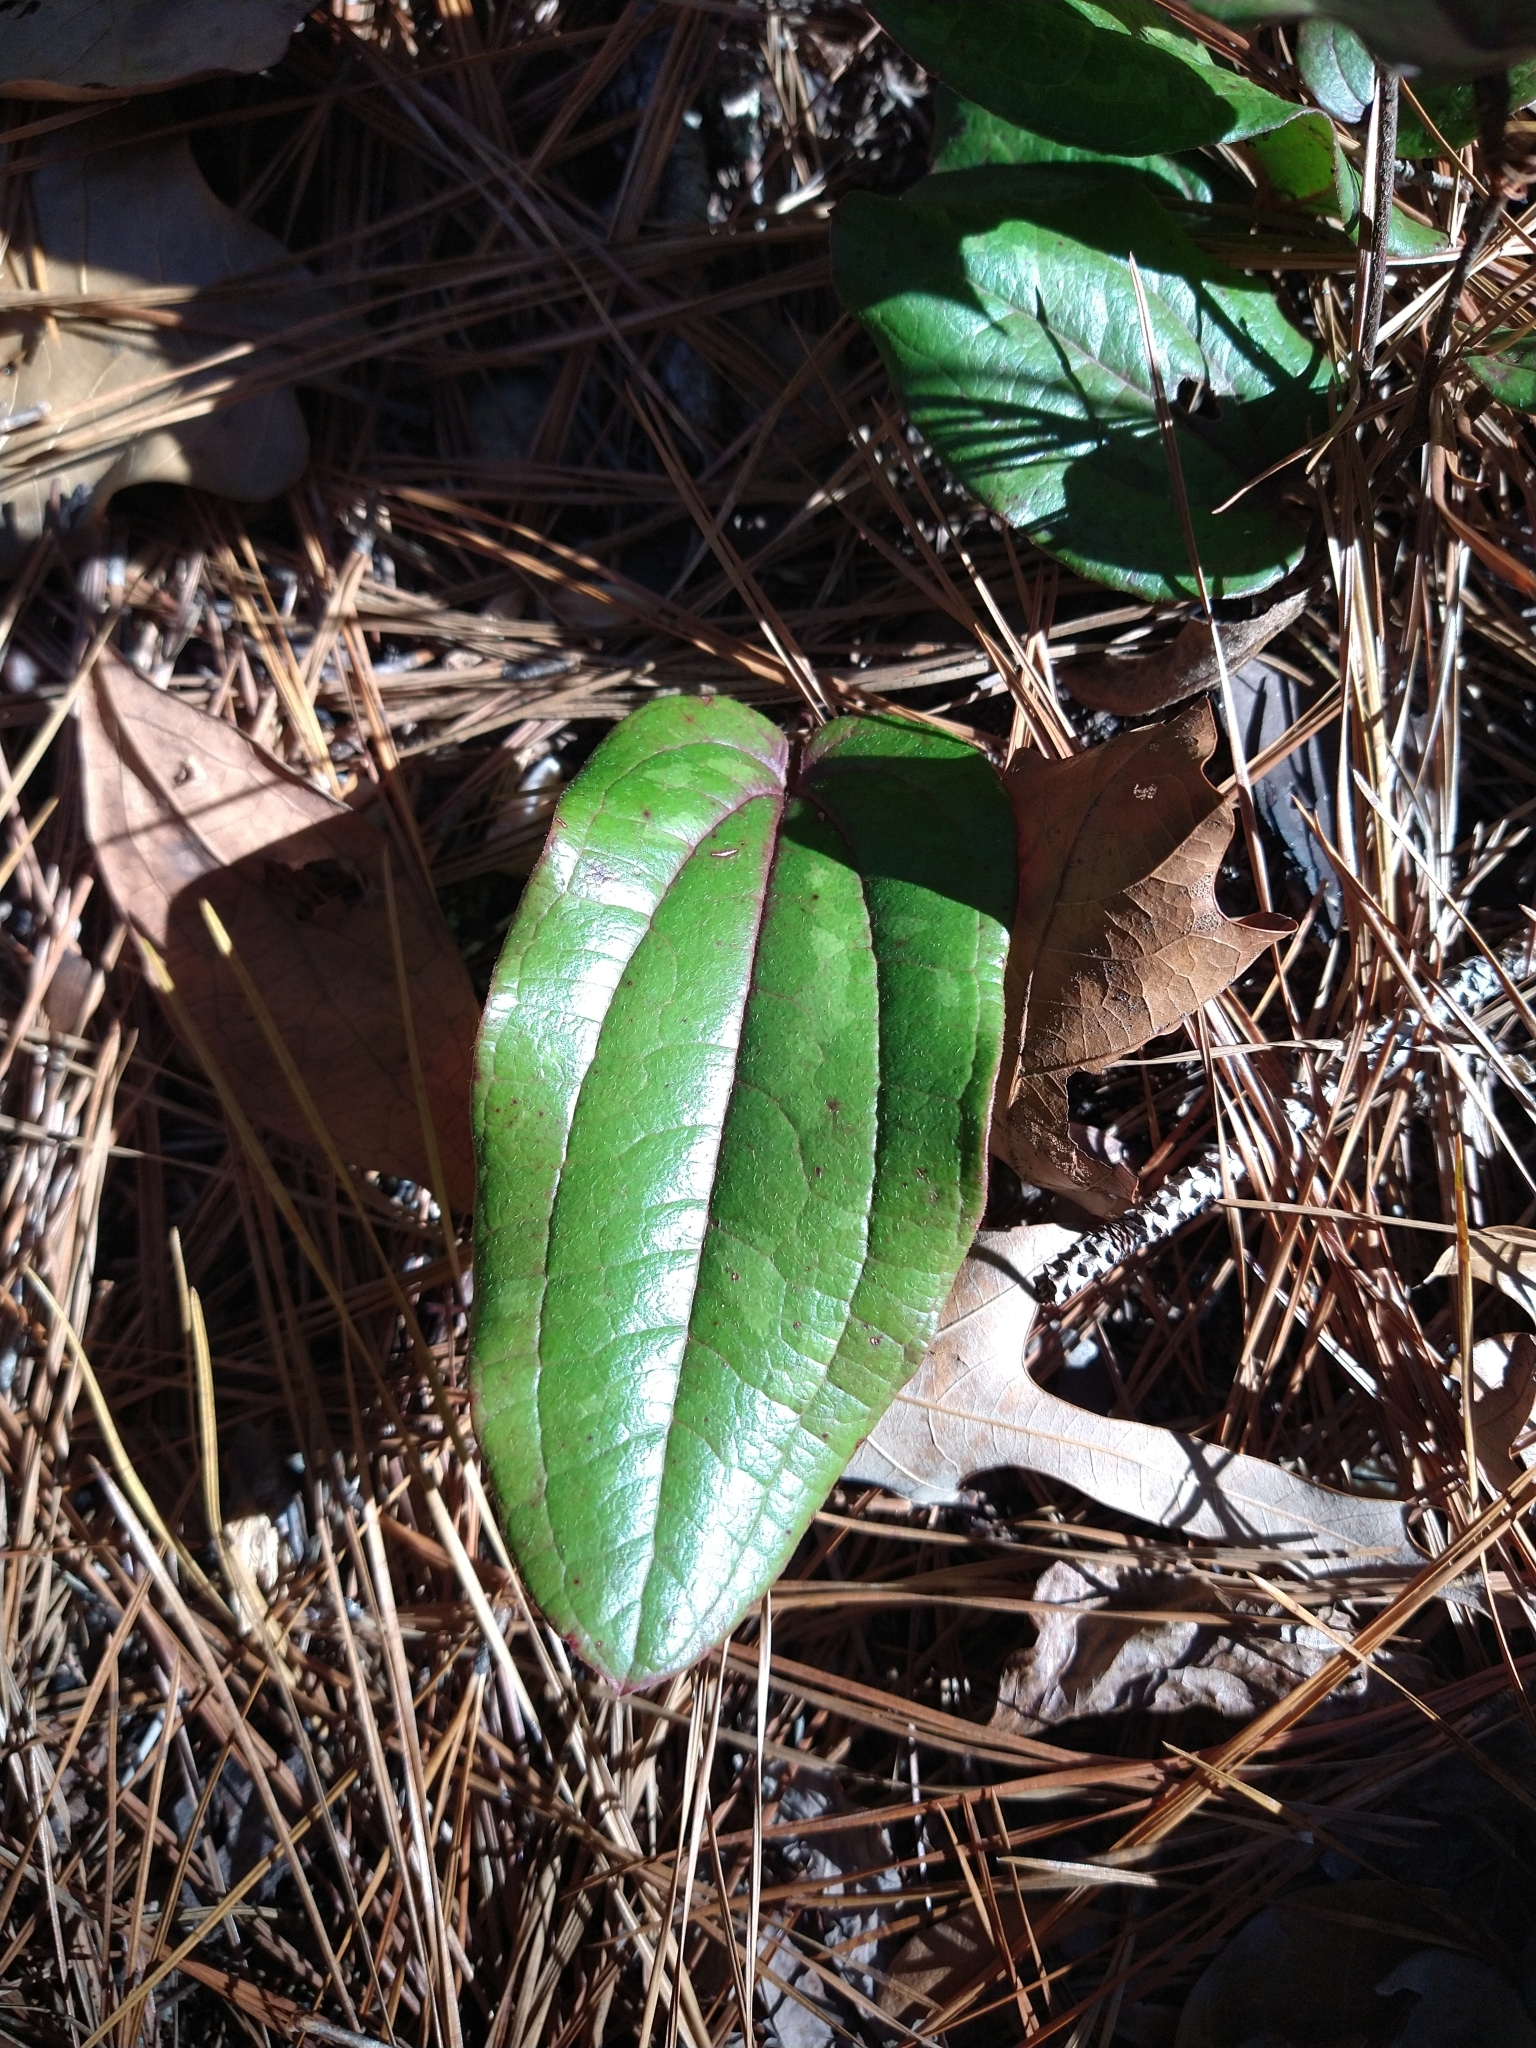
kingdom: Plantae
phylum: Tracheophyta
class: Liliopsida
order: Liliales
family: Smilacaceae
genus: Smilax
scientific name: Smilax pumila
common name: Sarsaparilla-vine
